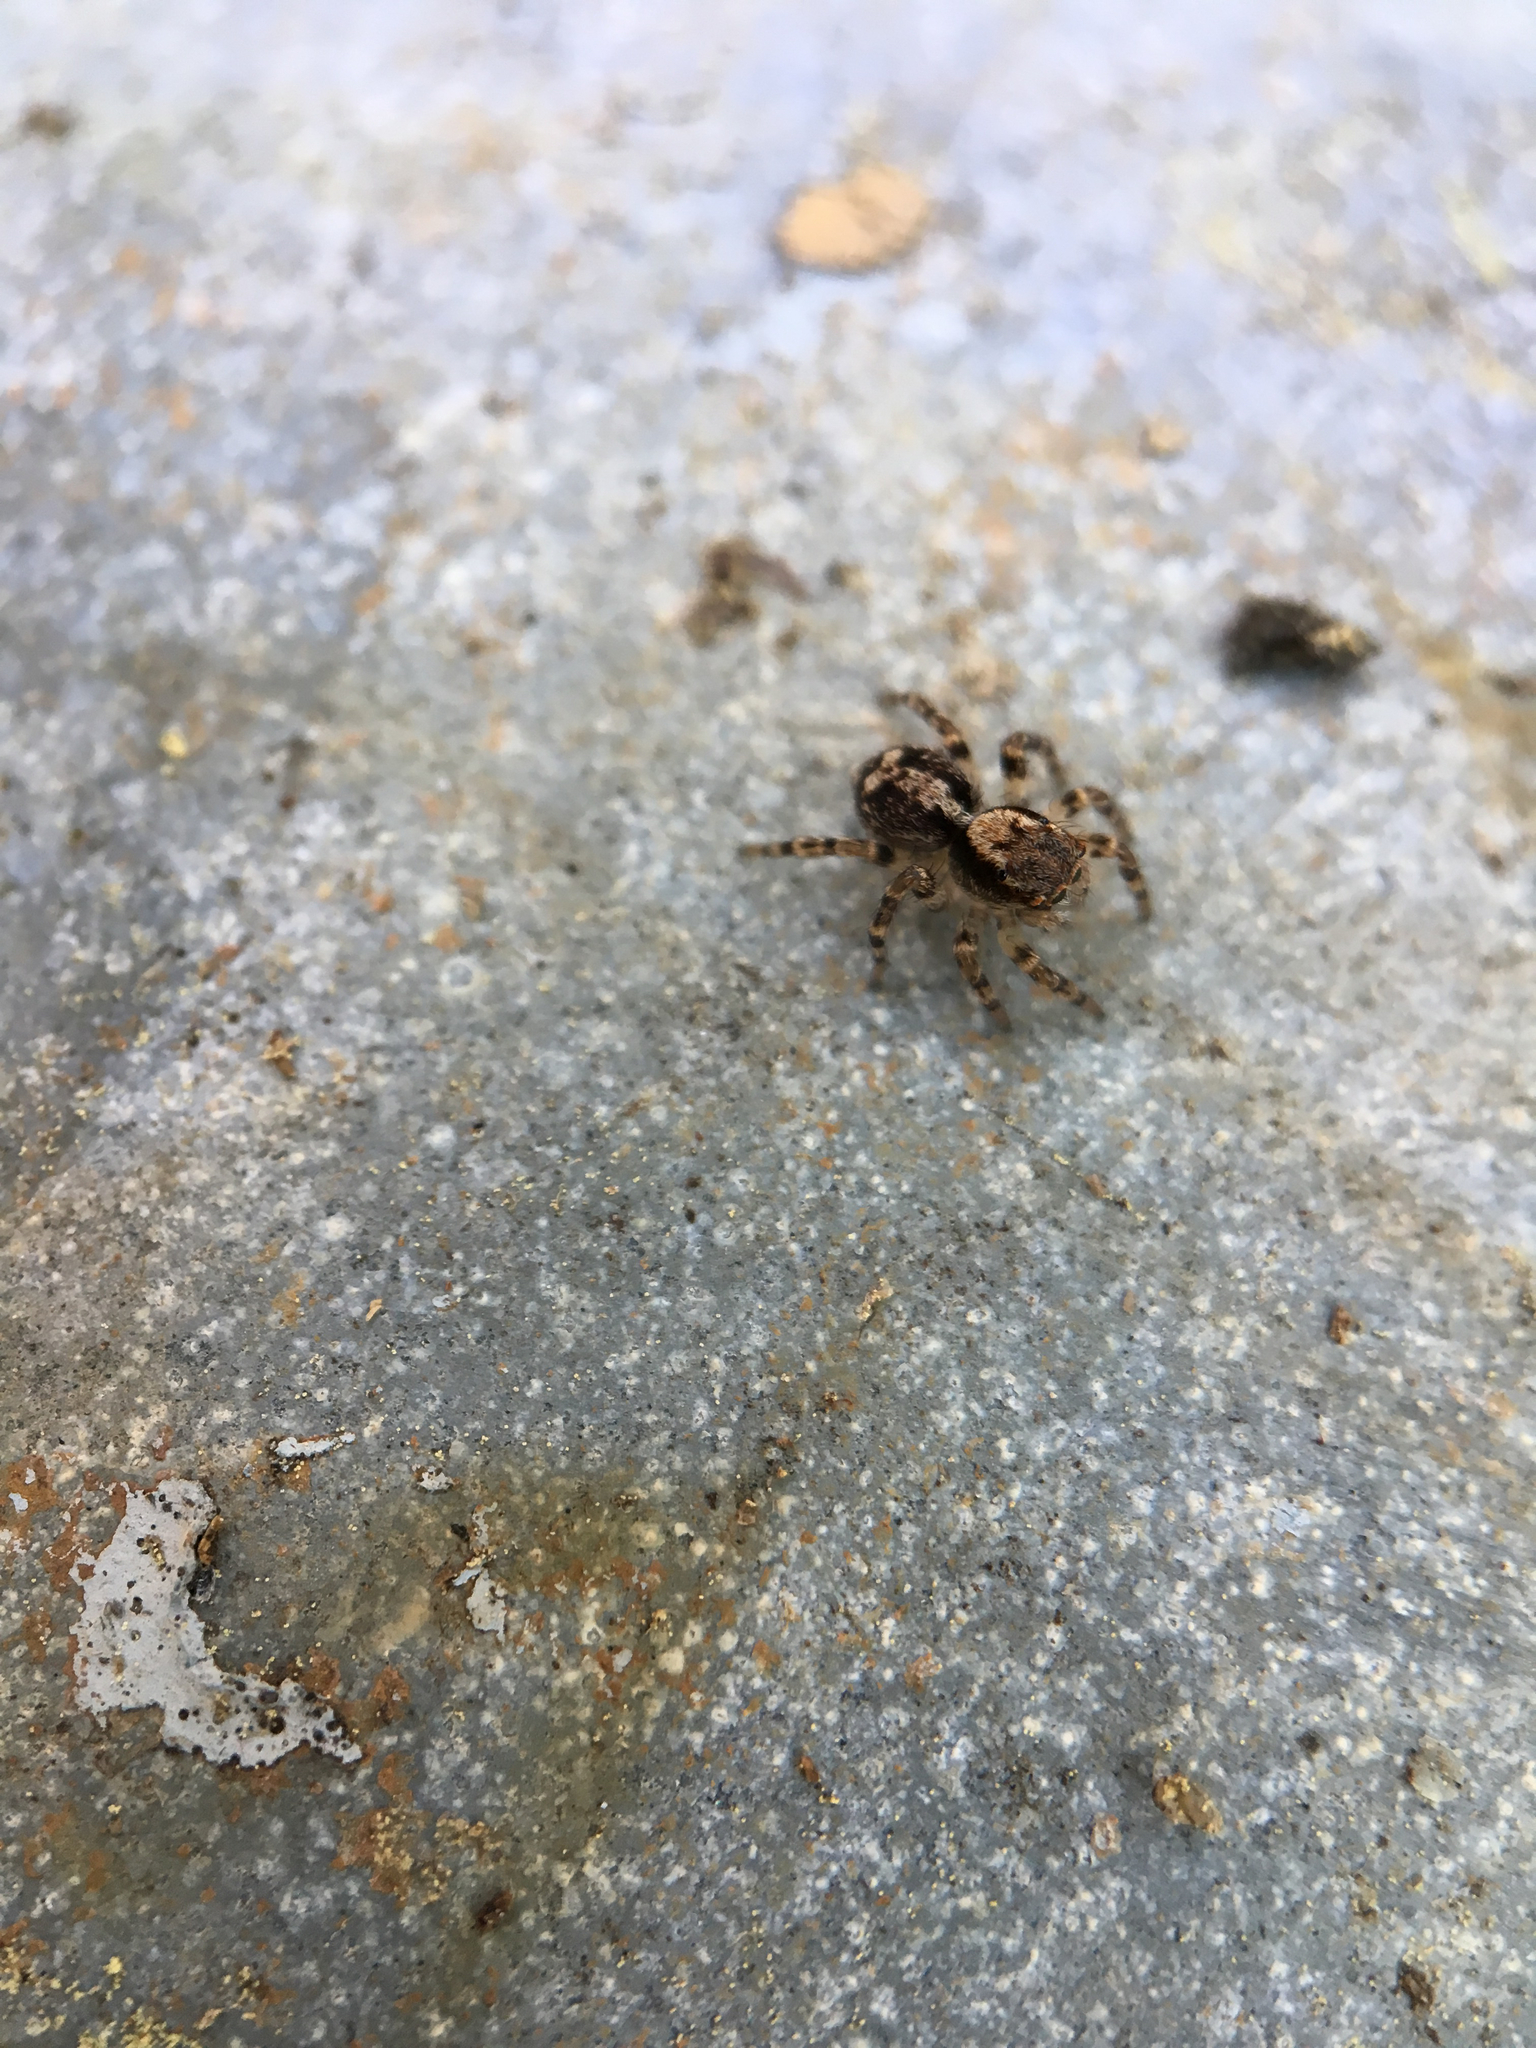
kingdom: Animalia
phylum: Arthropoda
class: Arachnida
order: Araneae
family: Salticidae
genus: Naphrys
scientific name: Naphrys pulex
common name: Flea jumping spider
